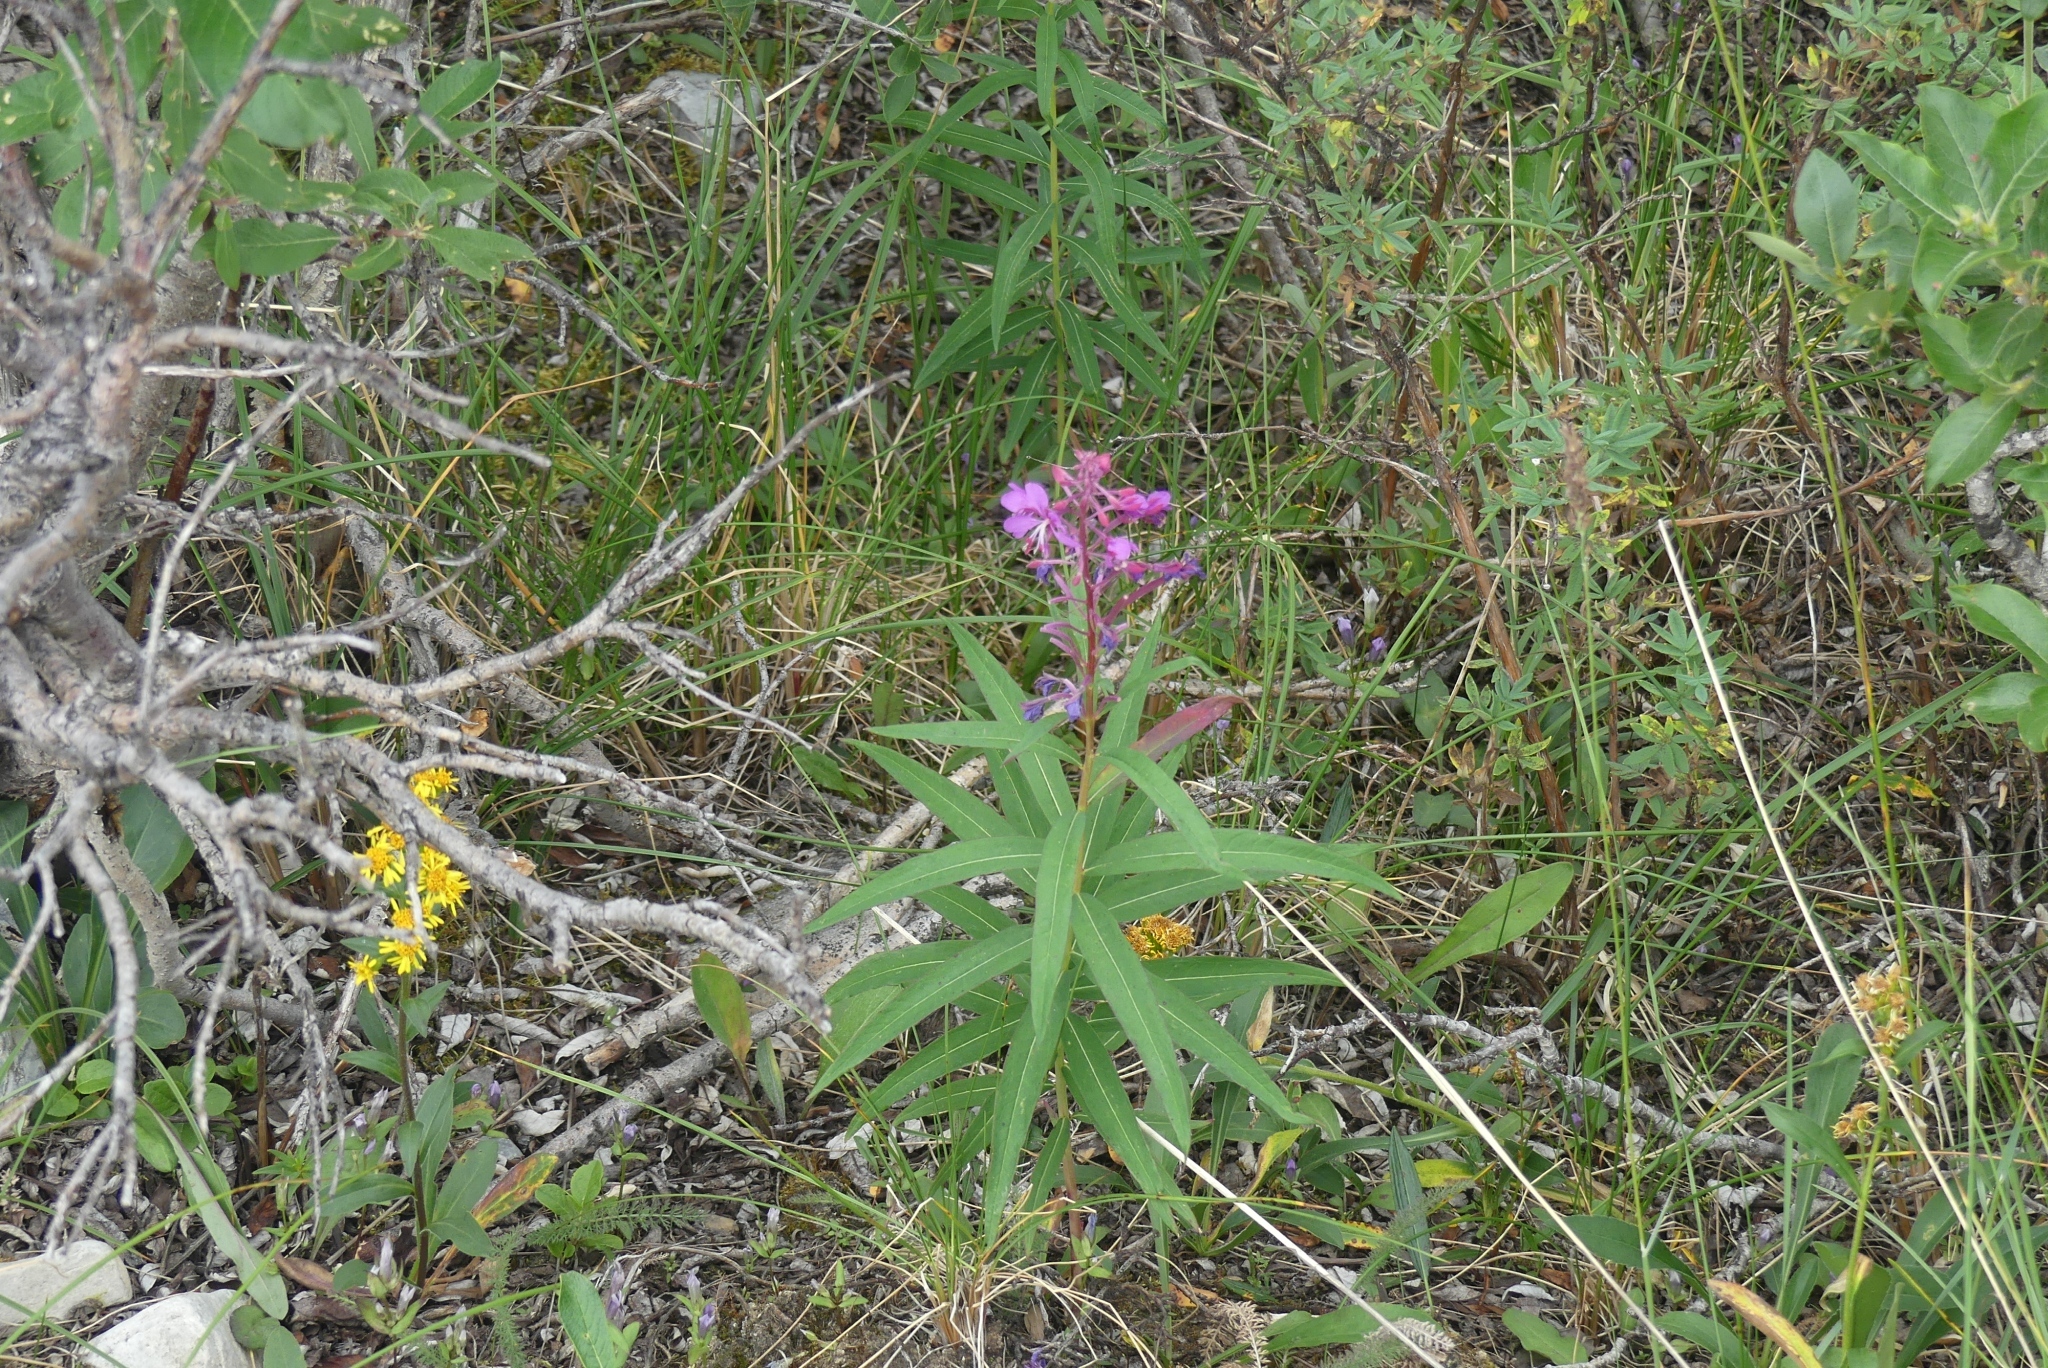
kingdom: Plantae
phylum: Tracheophyta
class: Magnoliopsida
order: Myrtales
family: Onagraceae
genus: Chamaenerion
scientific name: Chamaenerion angustifolium
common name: Fireweed
